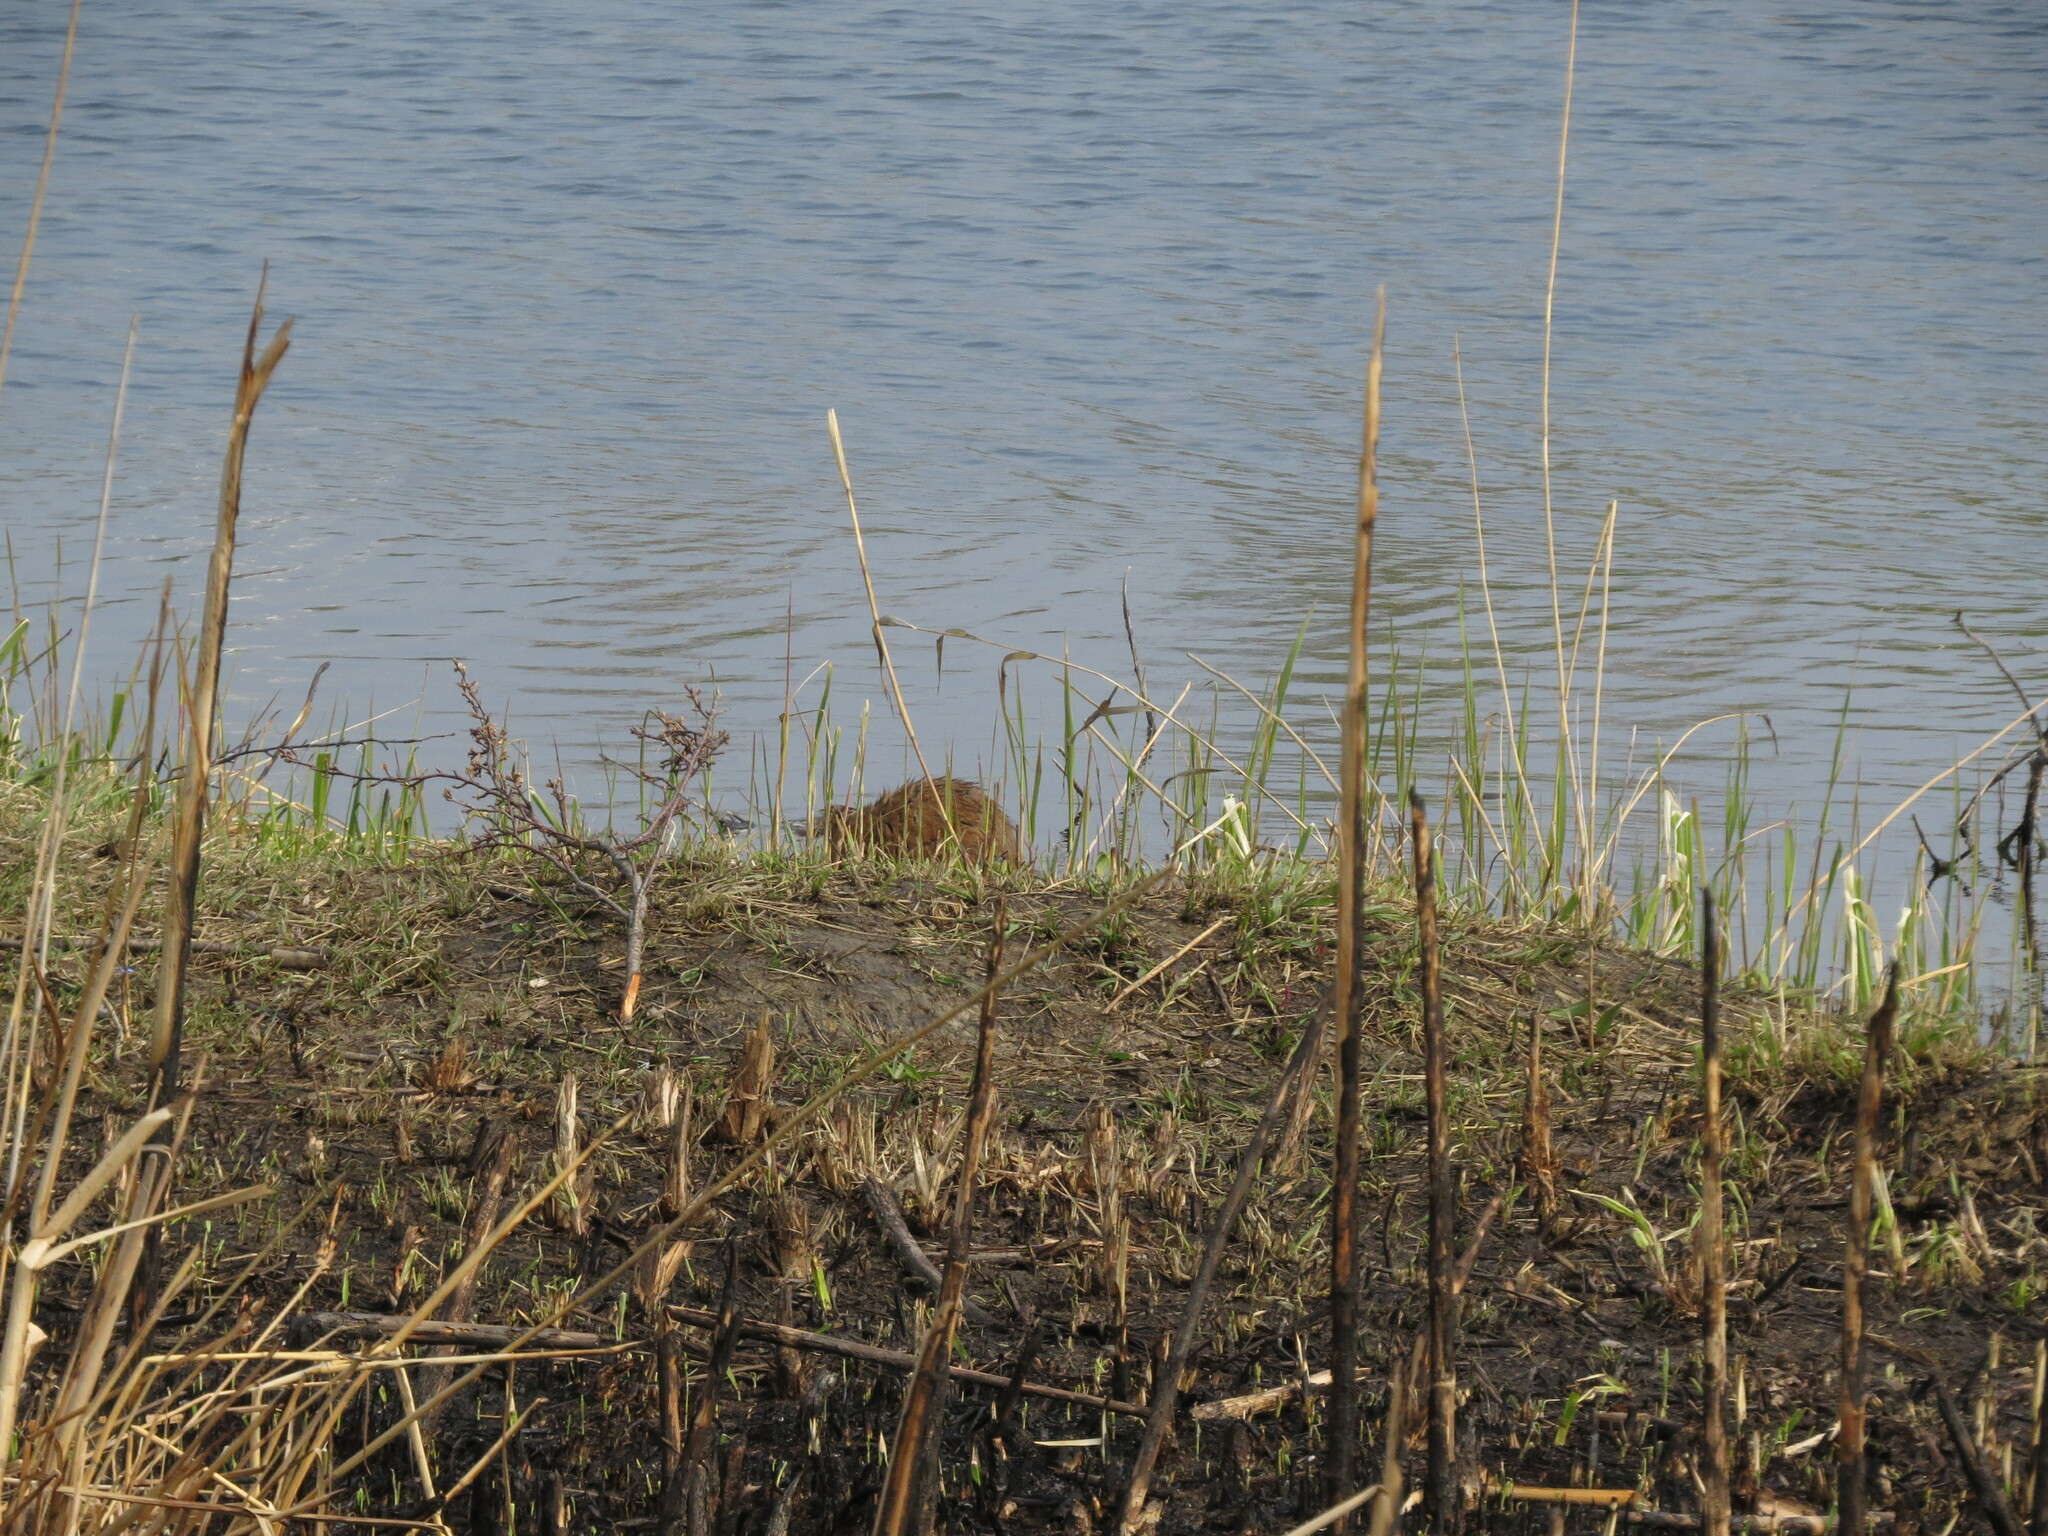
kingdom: Animalia
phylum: Chordata
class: Mammalia
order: Rodentia
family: Cricetidae
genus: Ondatra
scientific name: Ondatra zibethicus
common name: Muskrat
